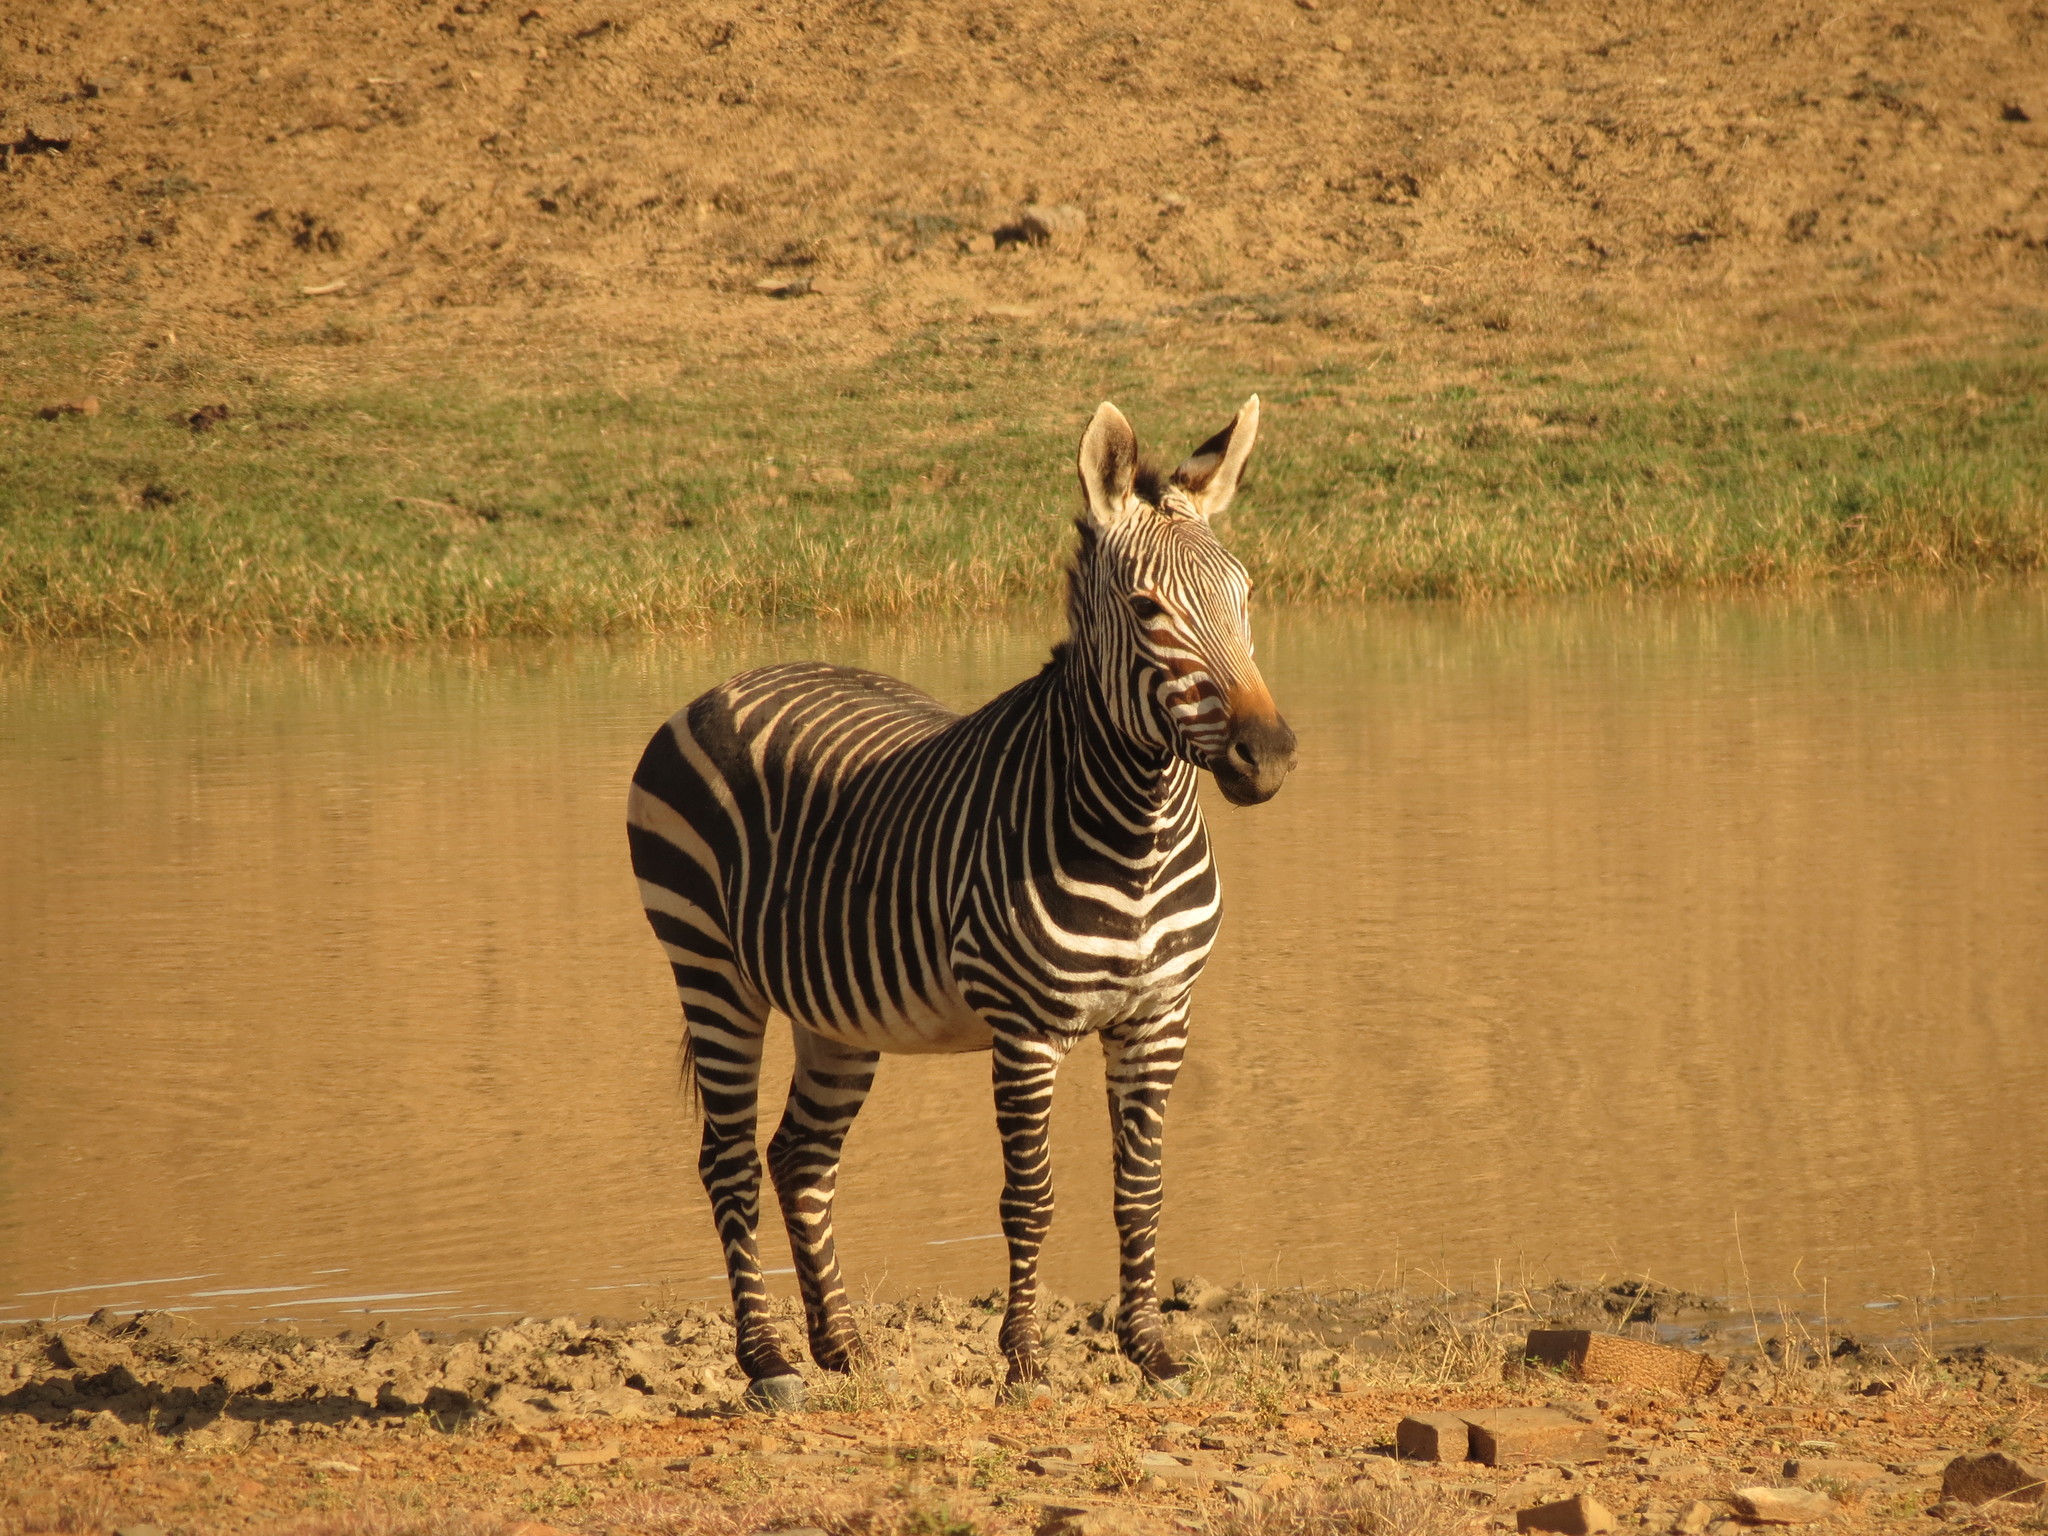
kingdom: Animalia
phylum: Chordata
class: Mammalia
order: Perissodactyla
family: Equidae
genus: Equus
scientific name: Equus zebra
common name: Mountain zebra
